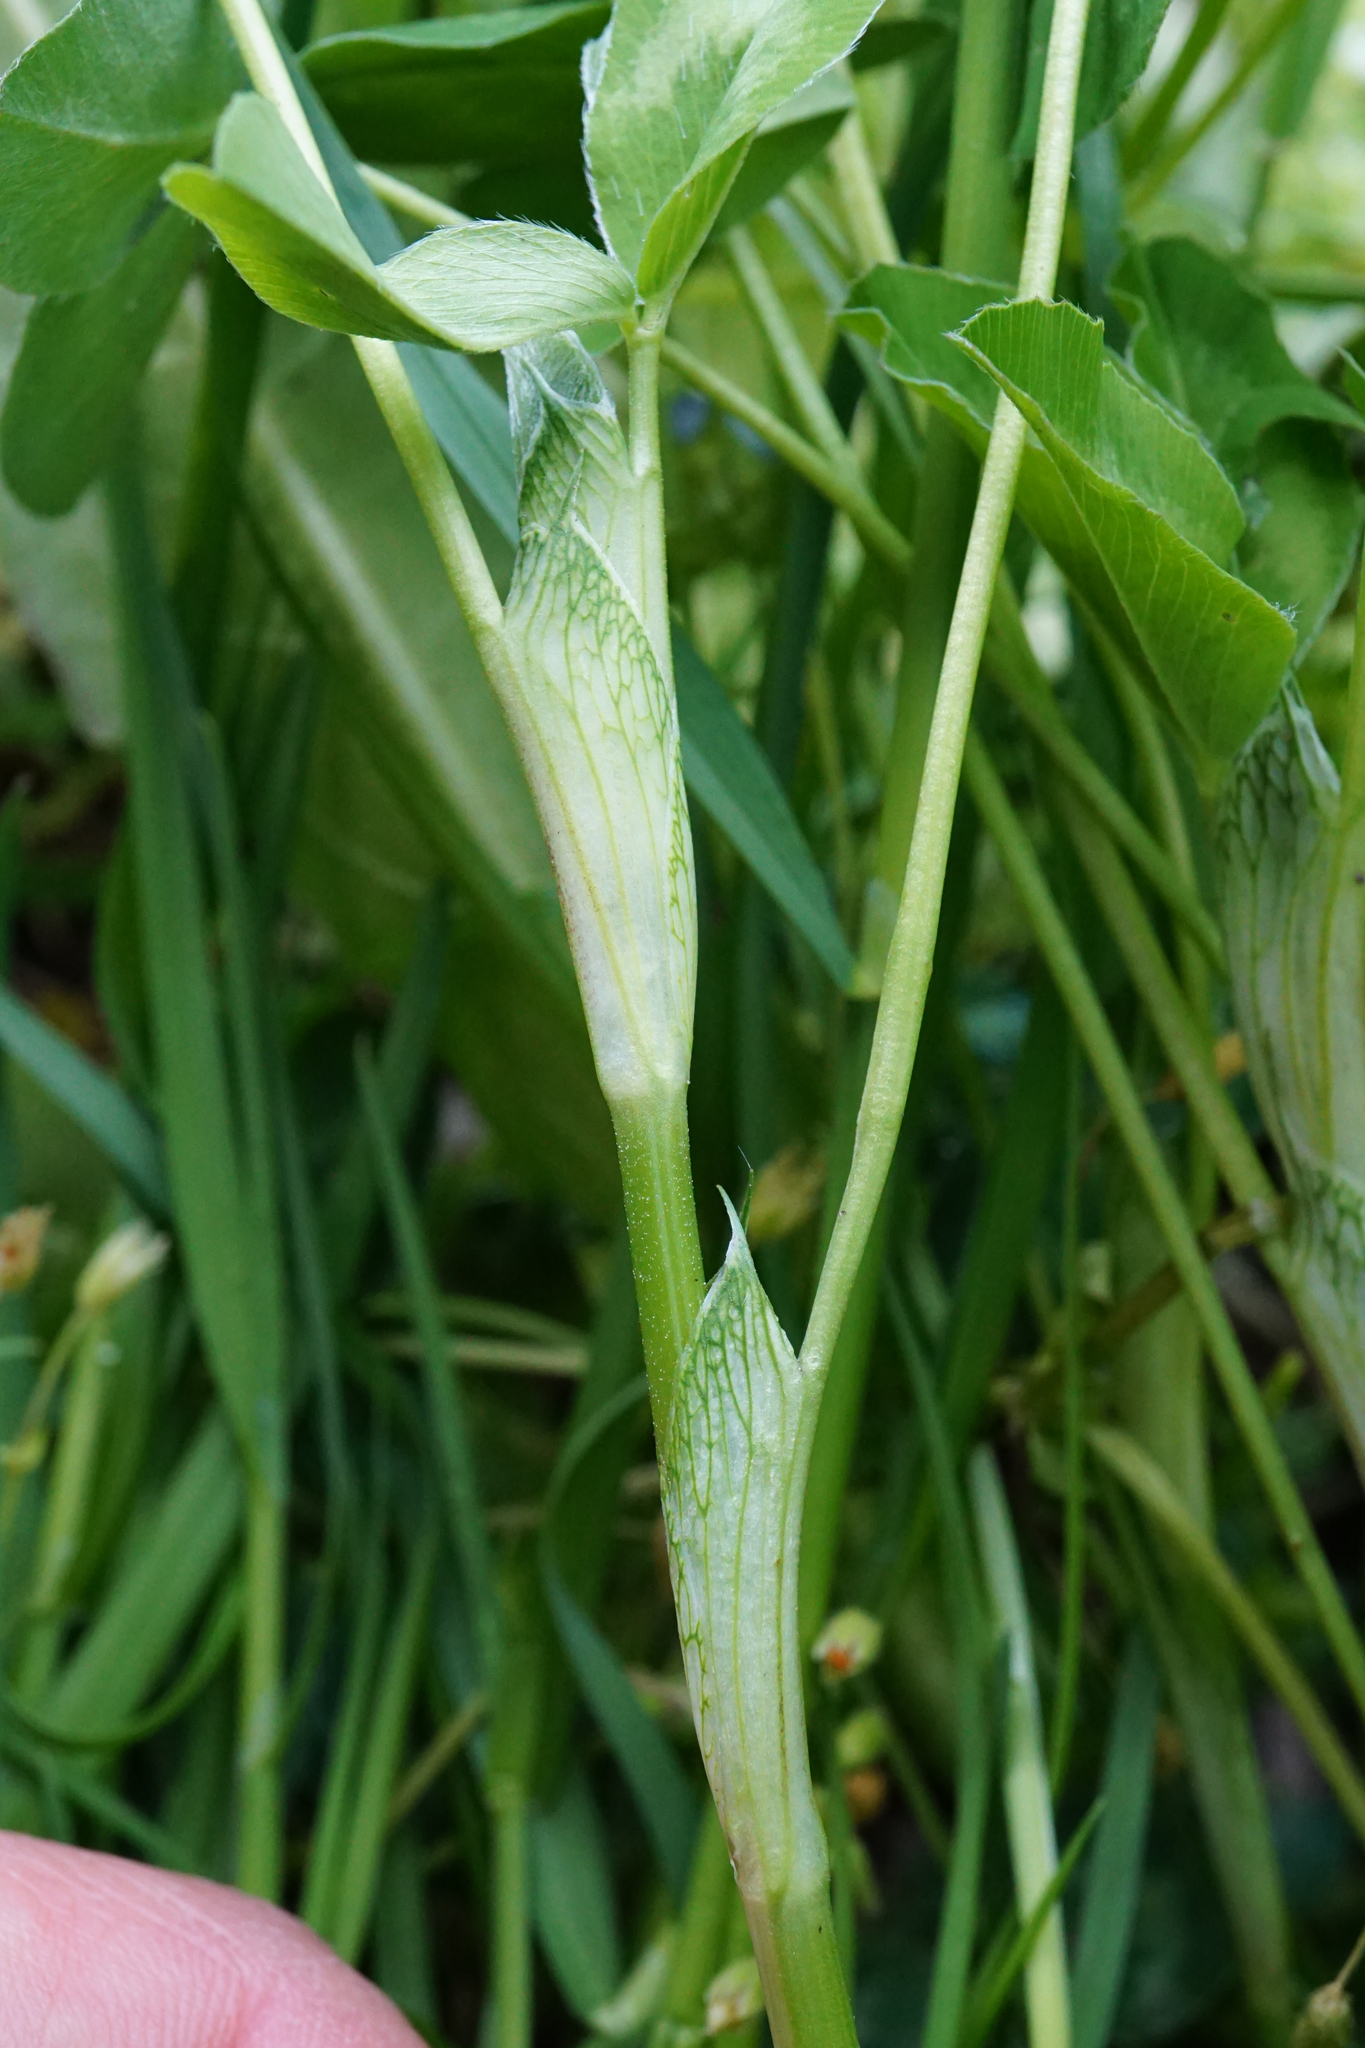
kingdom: Plantae
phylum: Tracheophyta
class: Magnoliopsida
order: Fabales
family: Fabaceae
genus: Trifolium
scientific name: Trifolium pratense
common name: Red clover
